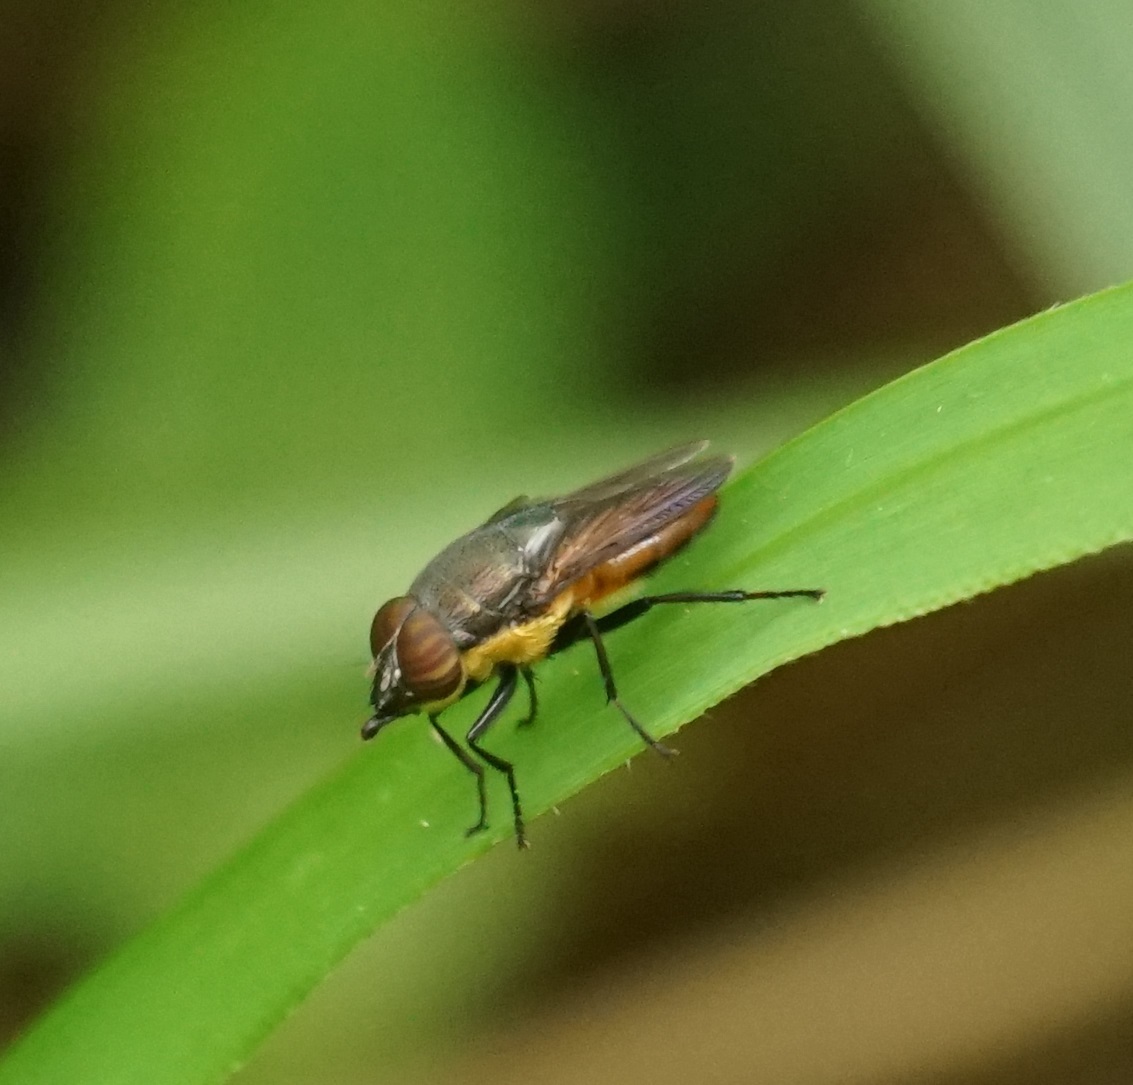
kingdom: Animalia
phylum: Arthropoda
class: Insecta
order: Diptera
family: Calliphoridae
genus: Idiellopsis
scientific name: Idiellopsis xanthogaster
